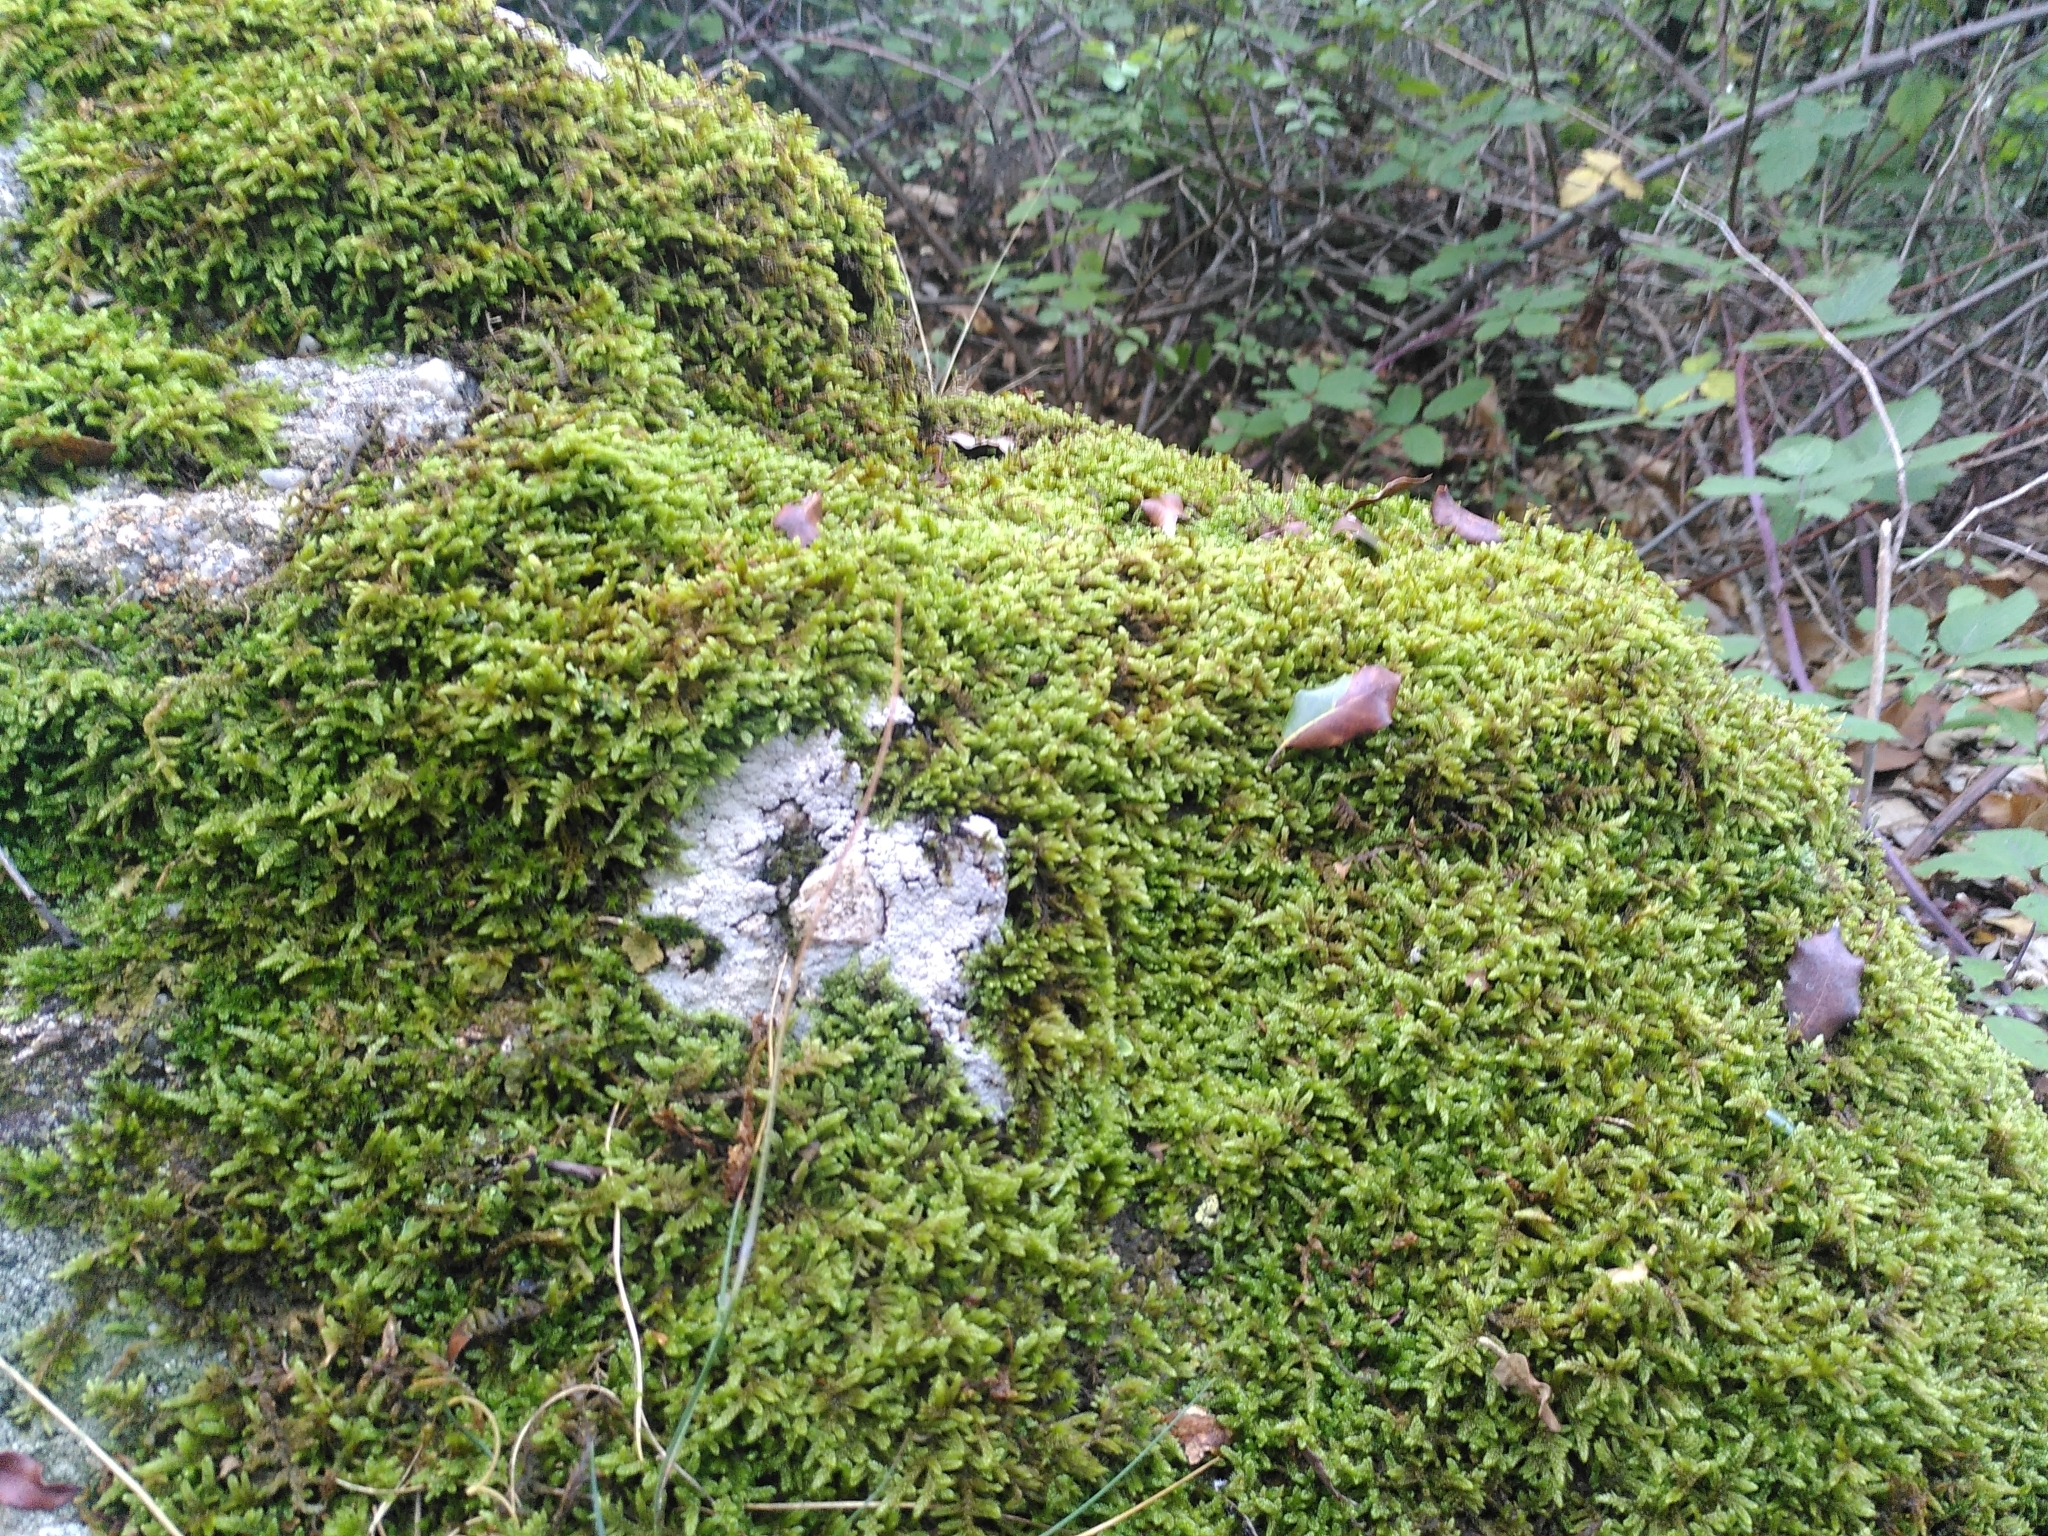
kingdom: Plantae
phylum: Bryophyta
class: Bryopsida
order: Hypnales
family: Hypnaceae
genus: Hypnum
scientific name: Hypnum cupressiforme
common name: Cypress-leaved plait-moss
